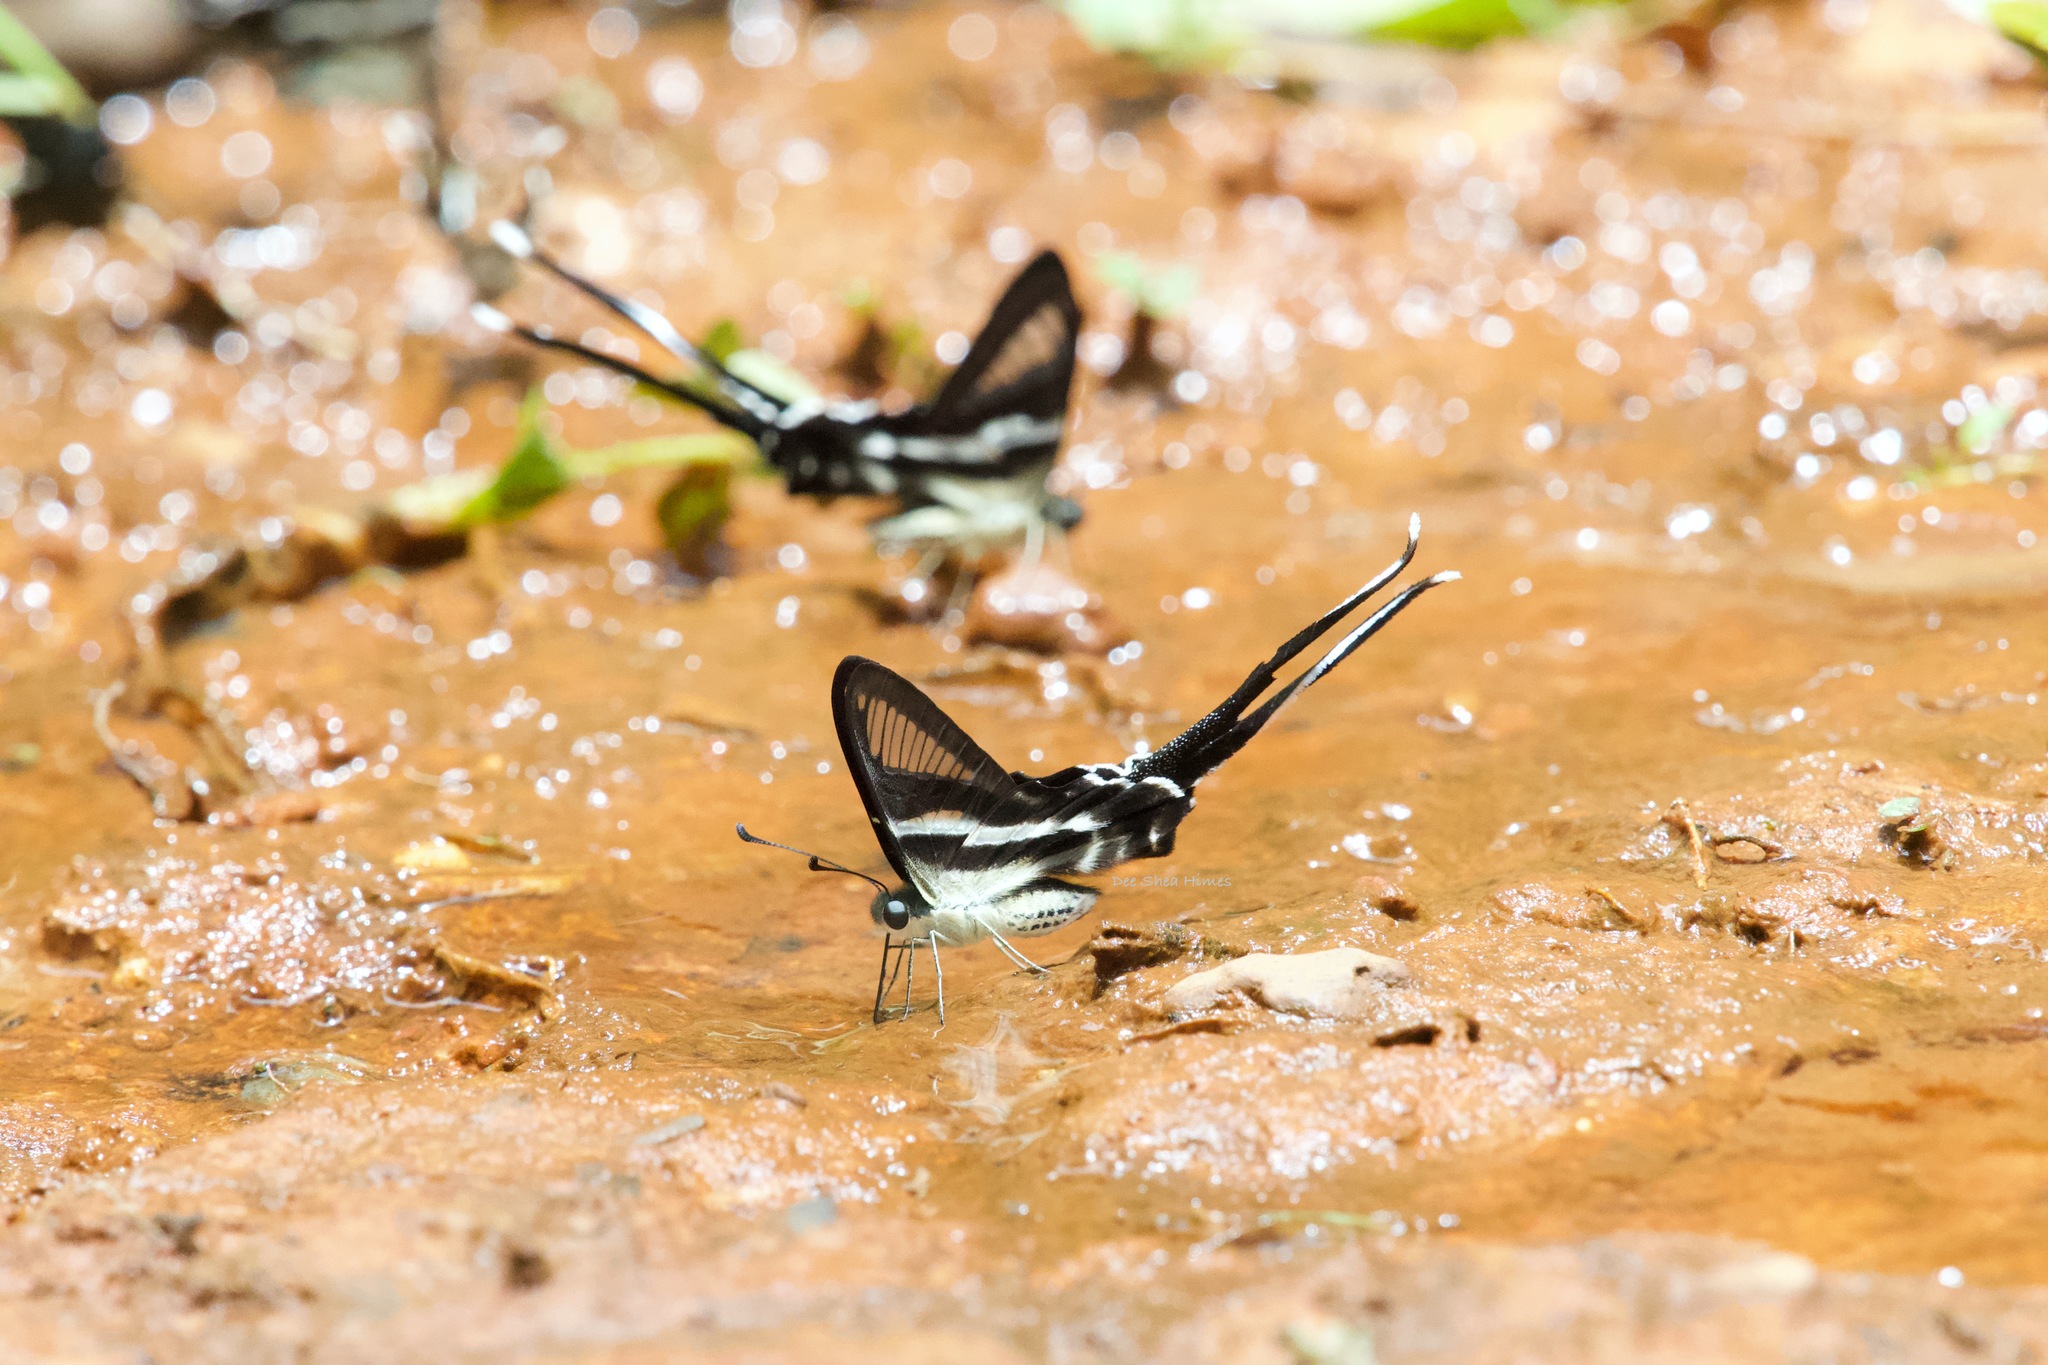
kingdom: Animalia
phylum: Arthropoda
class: Insecta
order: Lepidoptera
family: Papilionidae
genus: Lamproptera
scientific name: Lamproptera meges
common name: Green dragontail
